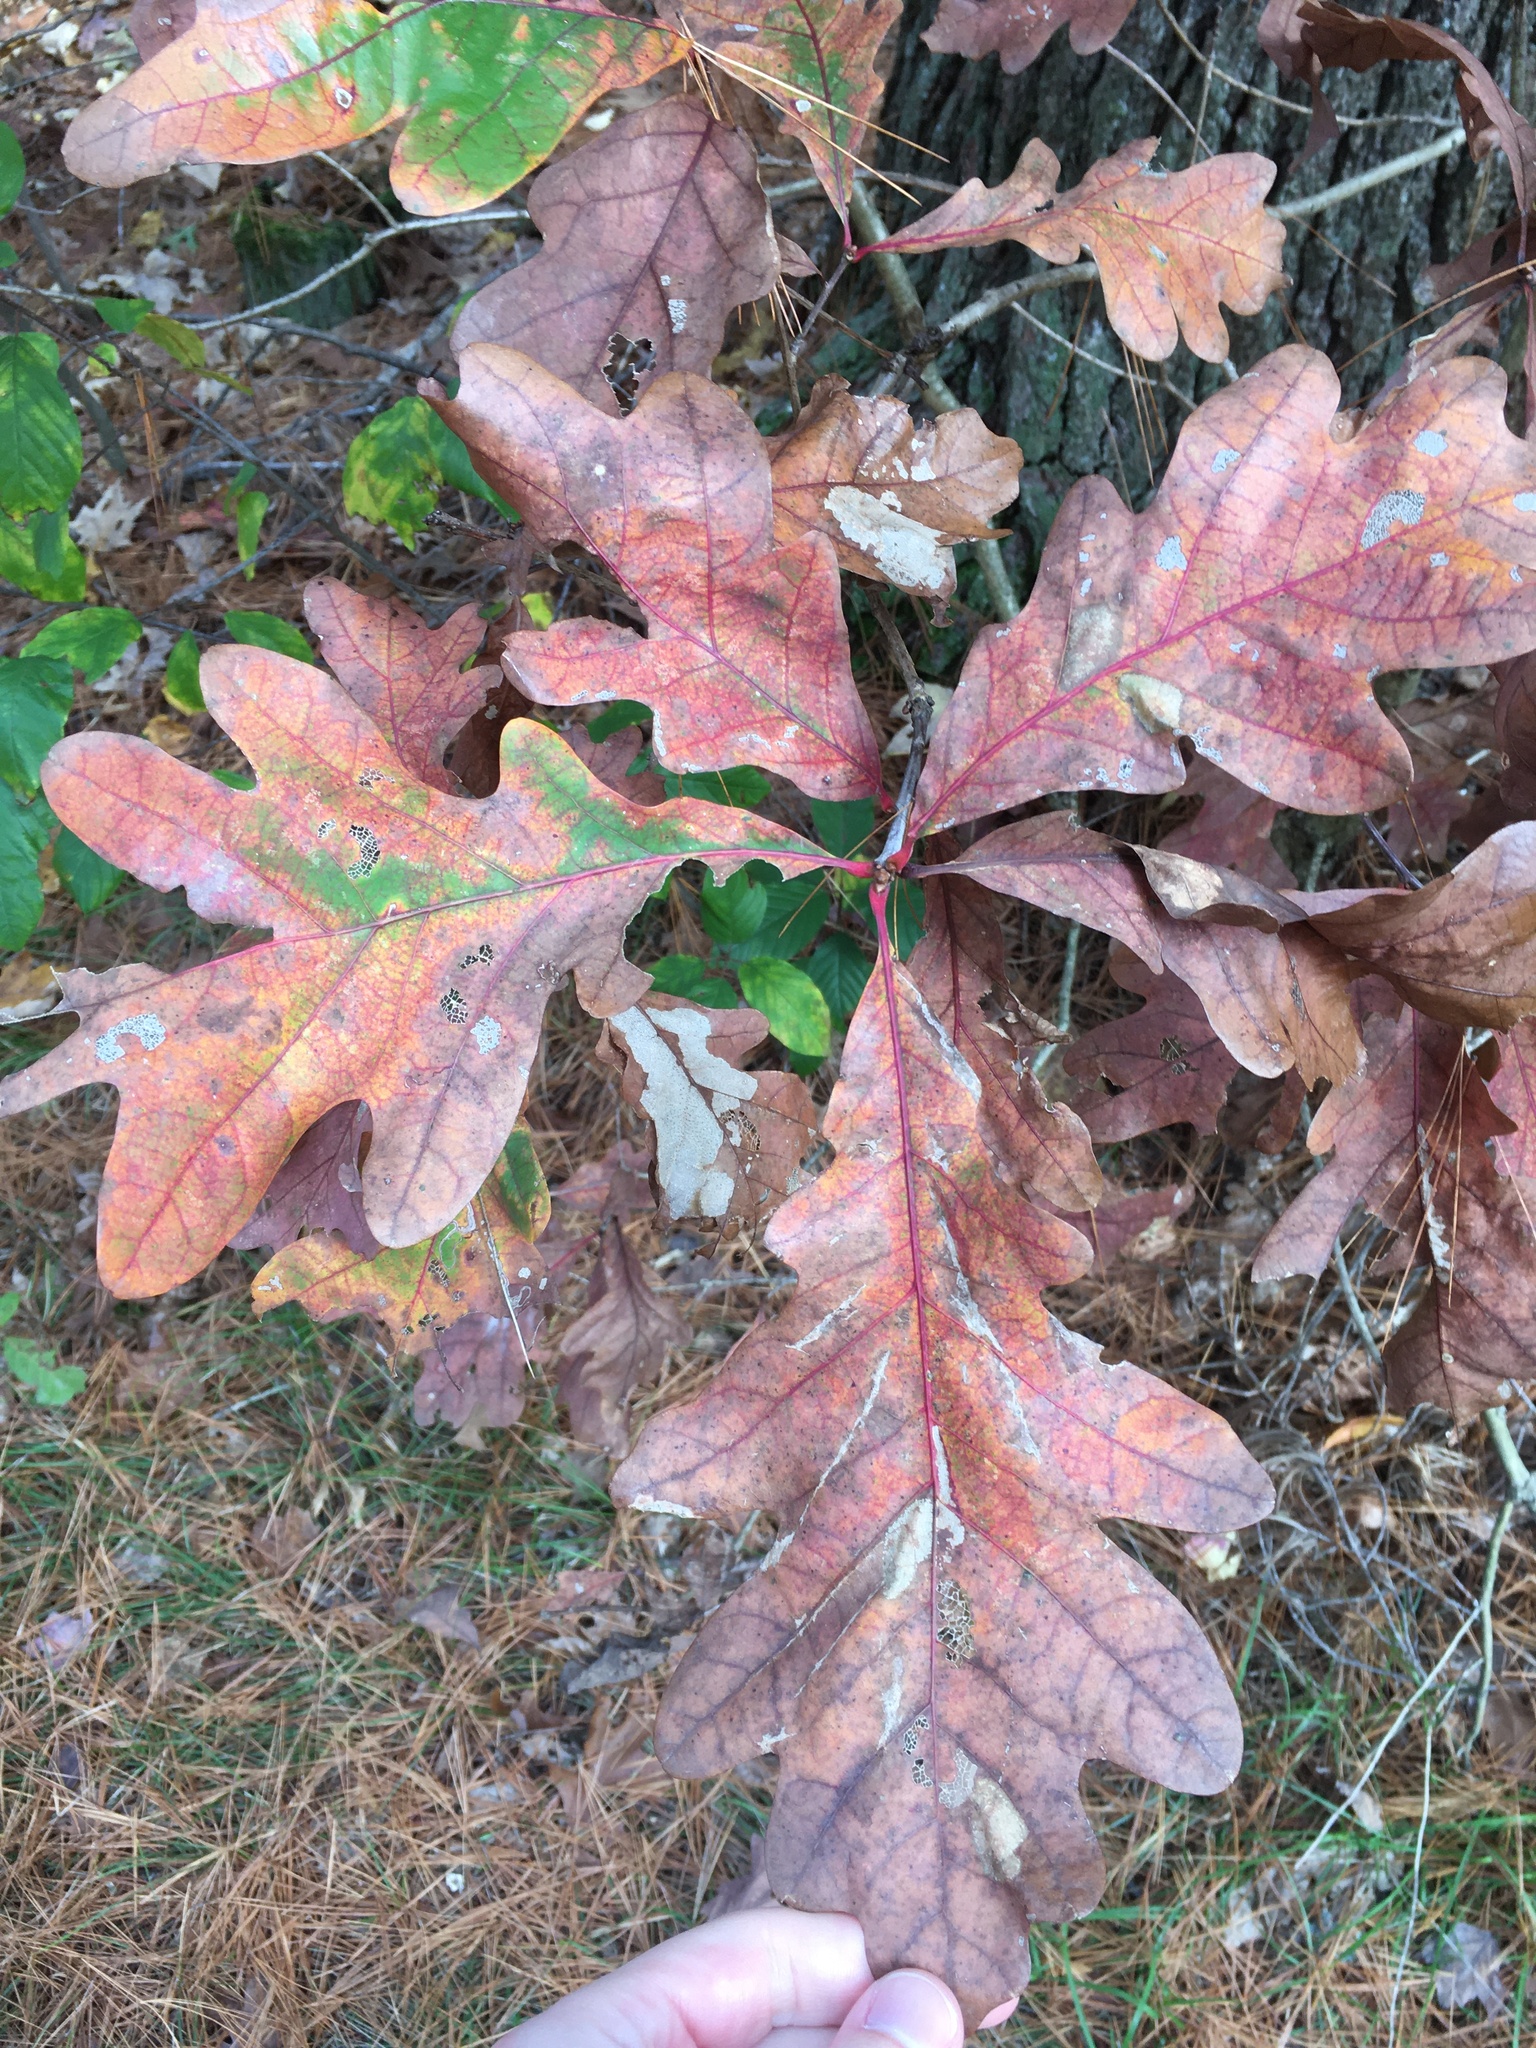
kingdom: Plantae
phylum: Tracheophyta
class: Magnoliopsida
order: Fagales
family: Fagaceae
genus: Quercus
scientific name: Quercus alba
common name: White oak
